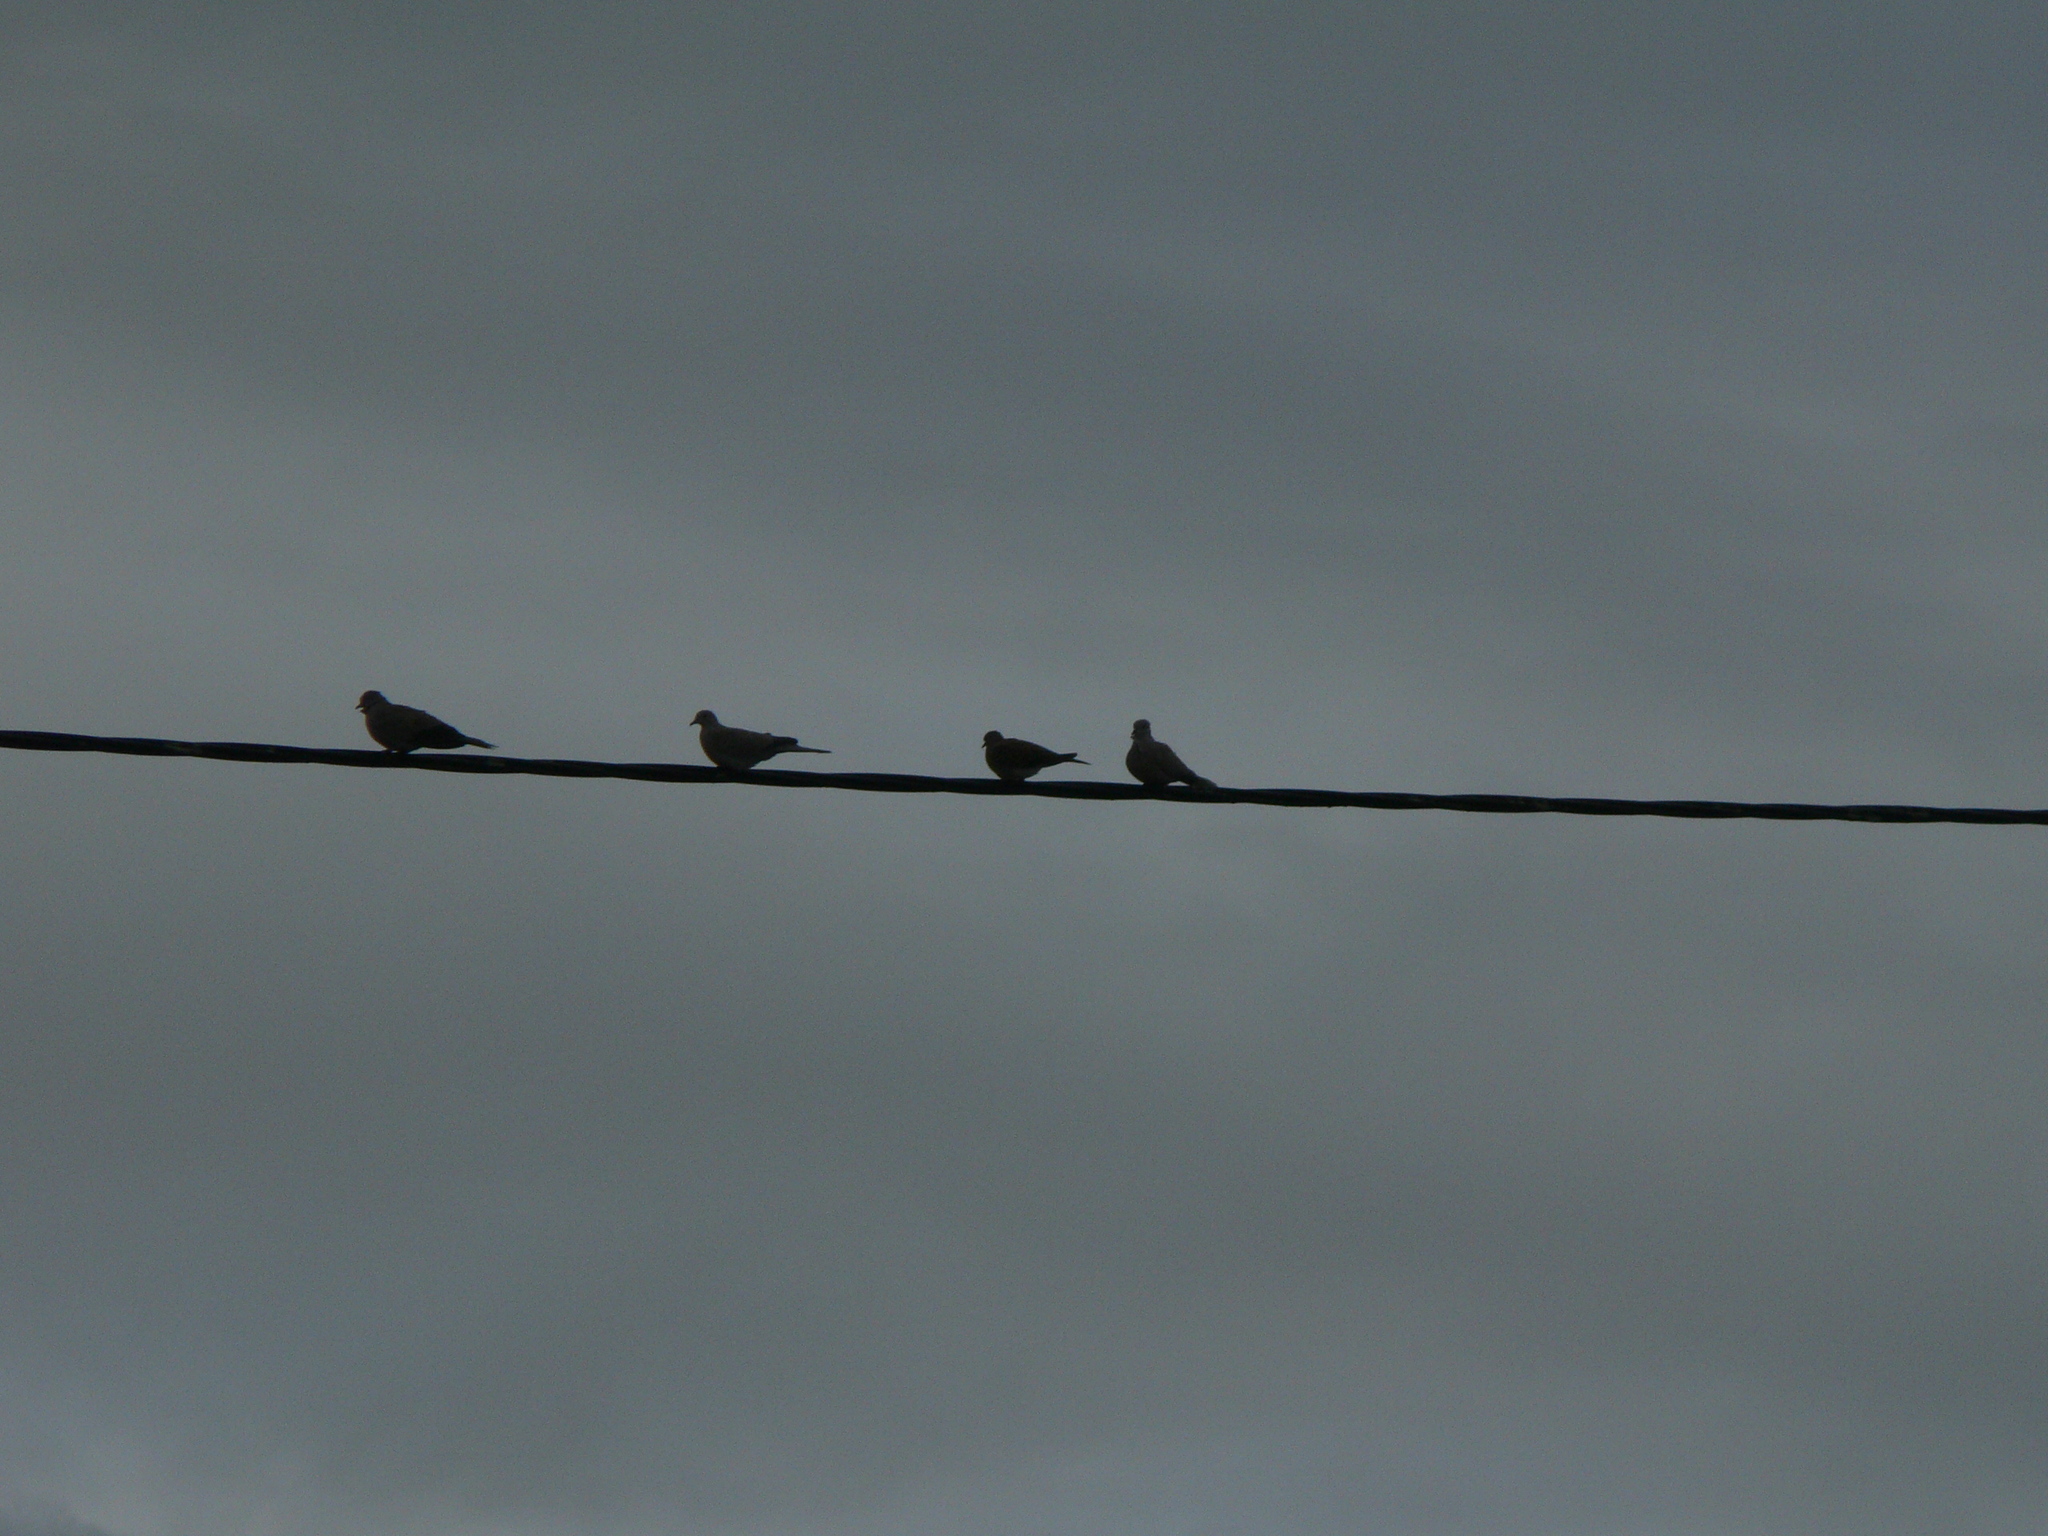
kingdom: Animalia
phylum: Chordata
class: Aves
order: Columbiformes
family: Columbidae
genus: Streptopelia
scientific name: Streptopelia decaocto
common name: Eurasian collared dove
